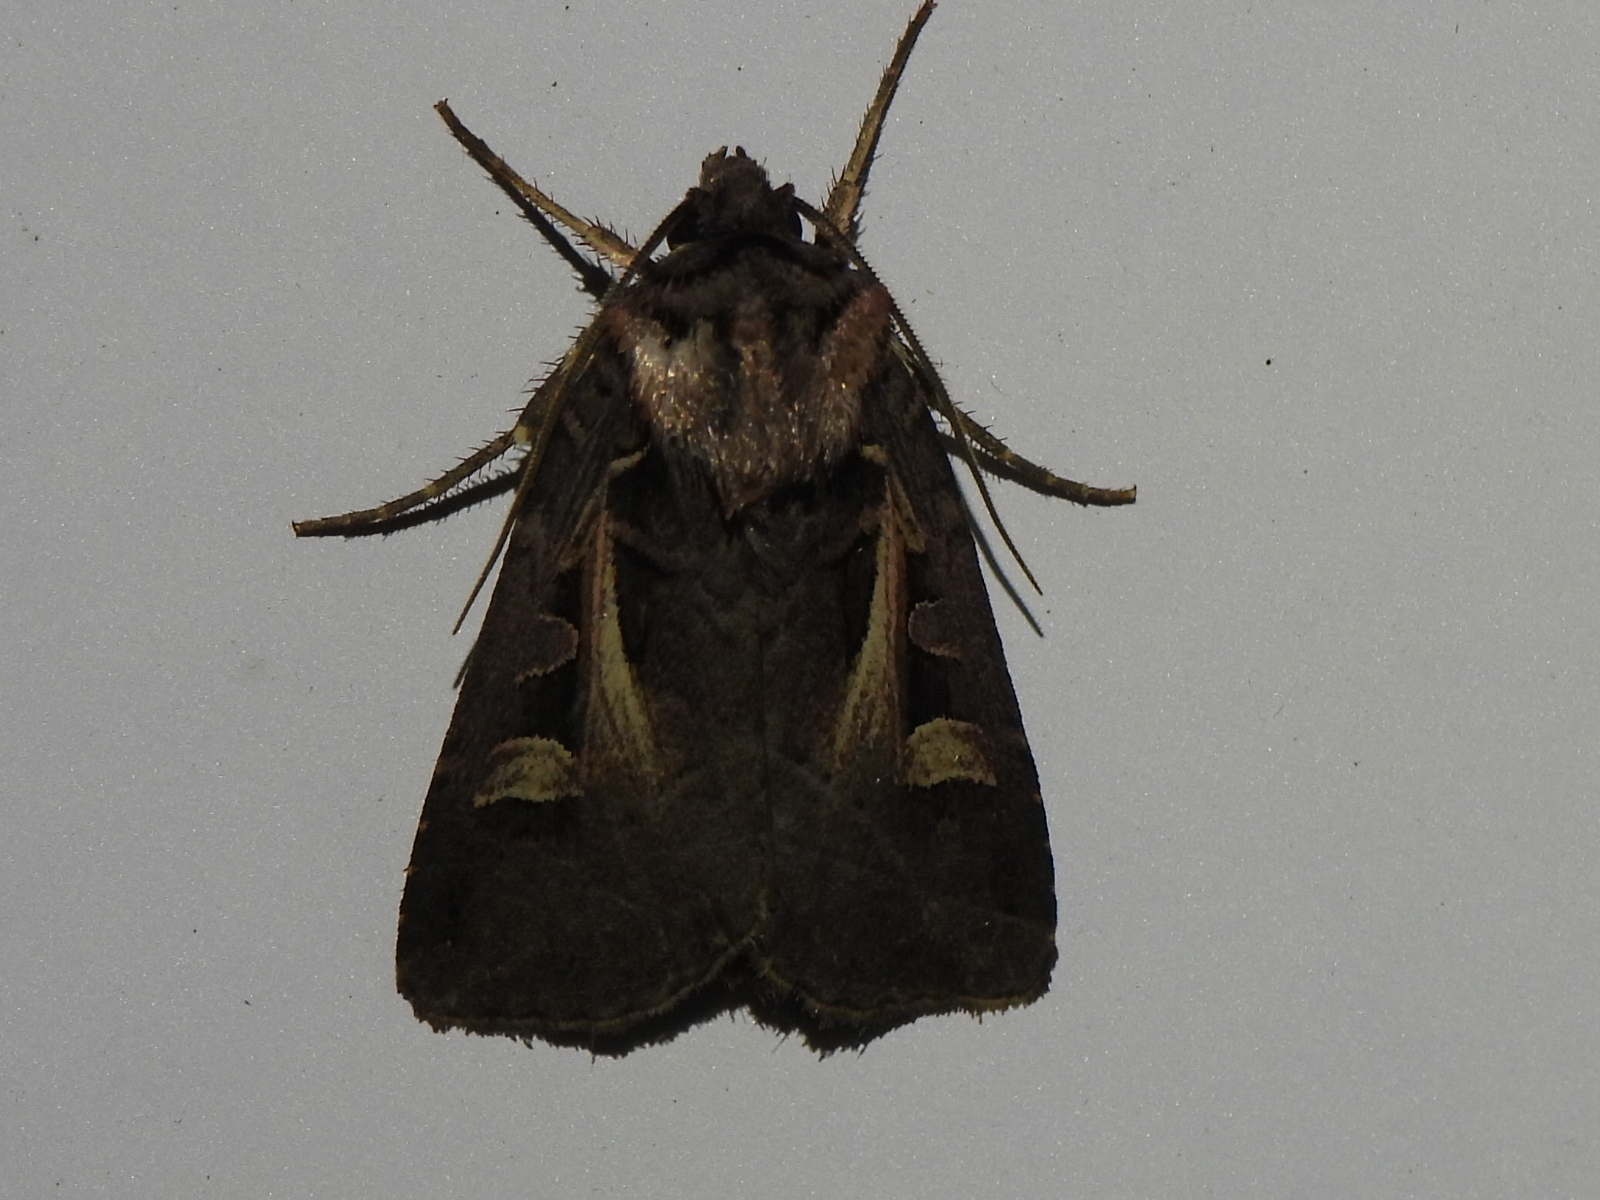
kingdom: Animalia
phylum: Arthropoda
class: Insecta
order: Lepidoptera
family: Noctuidae
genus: Feltia
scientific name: Feltia herilis
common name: Master's dart
